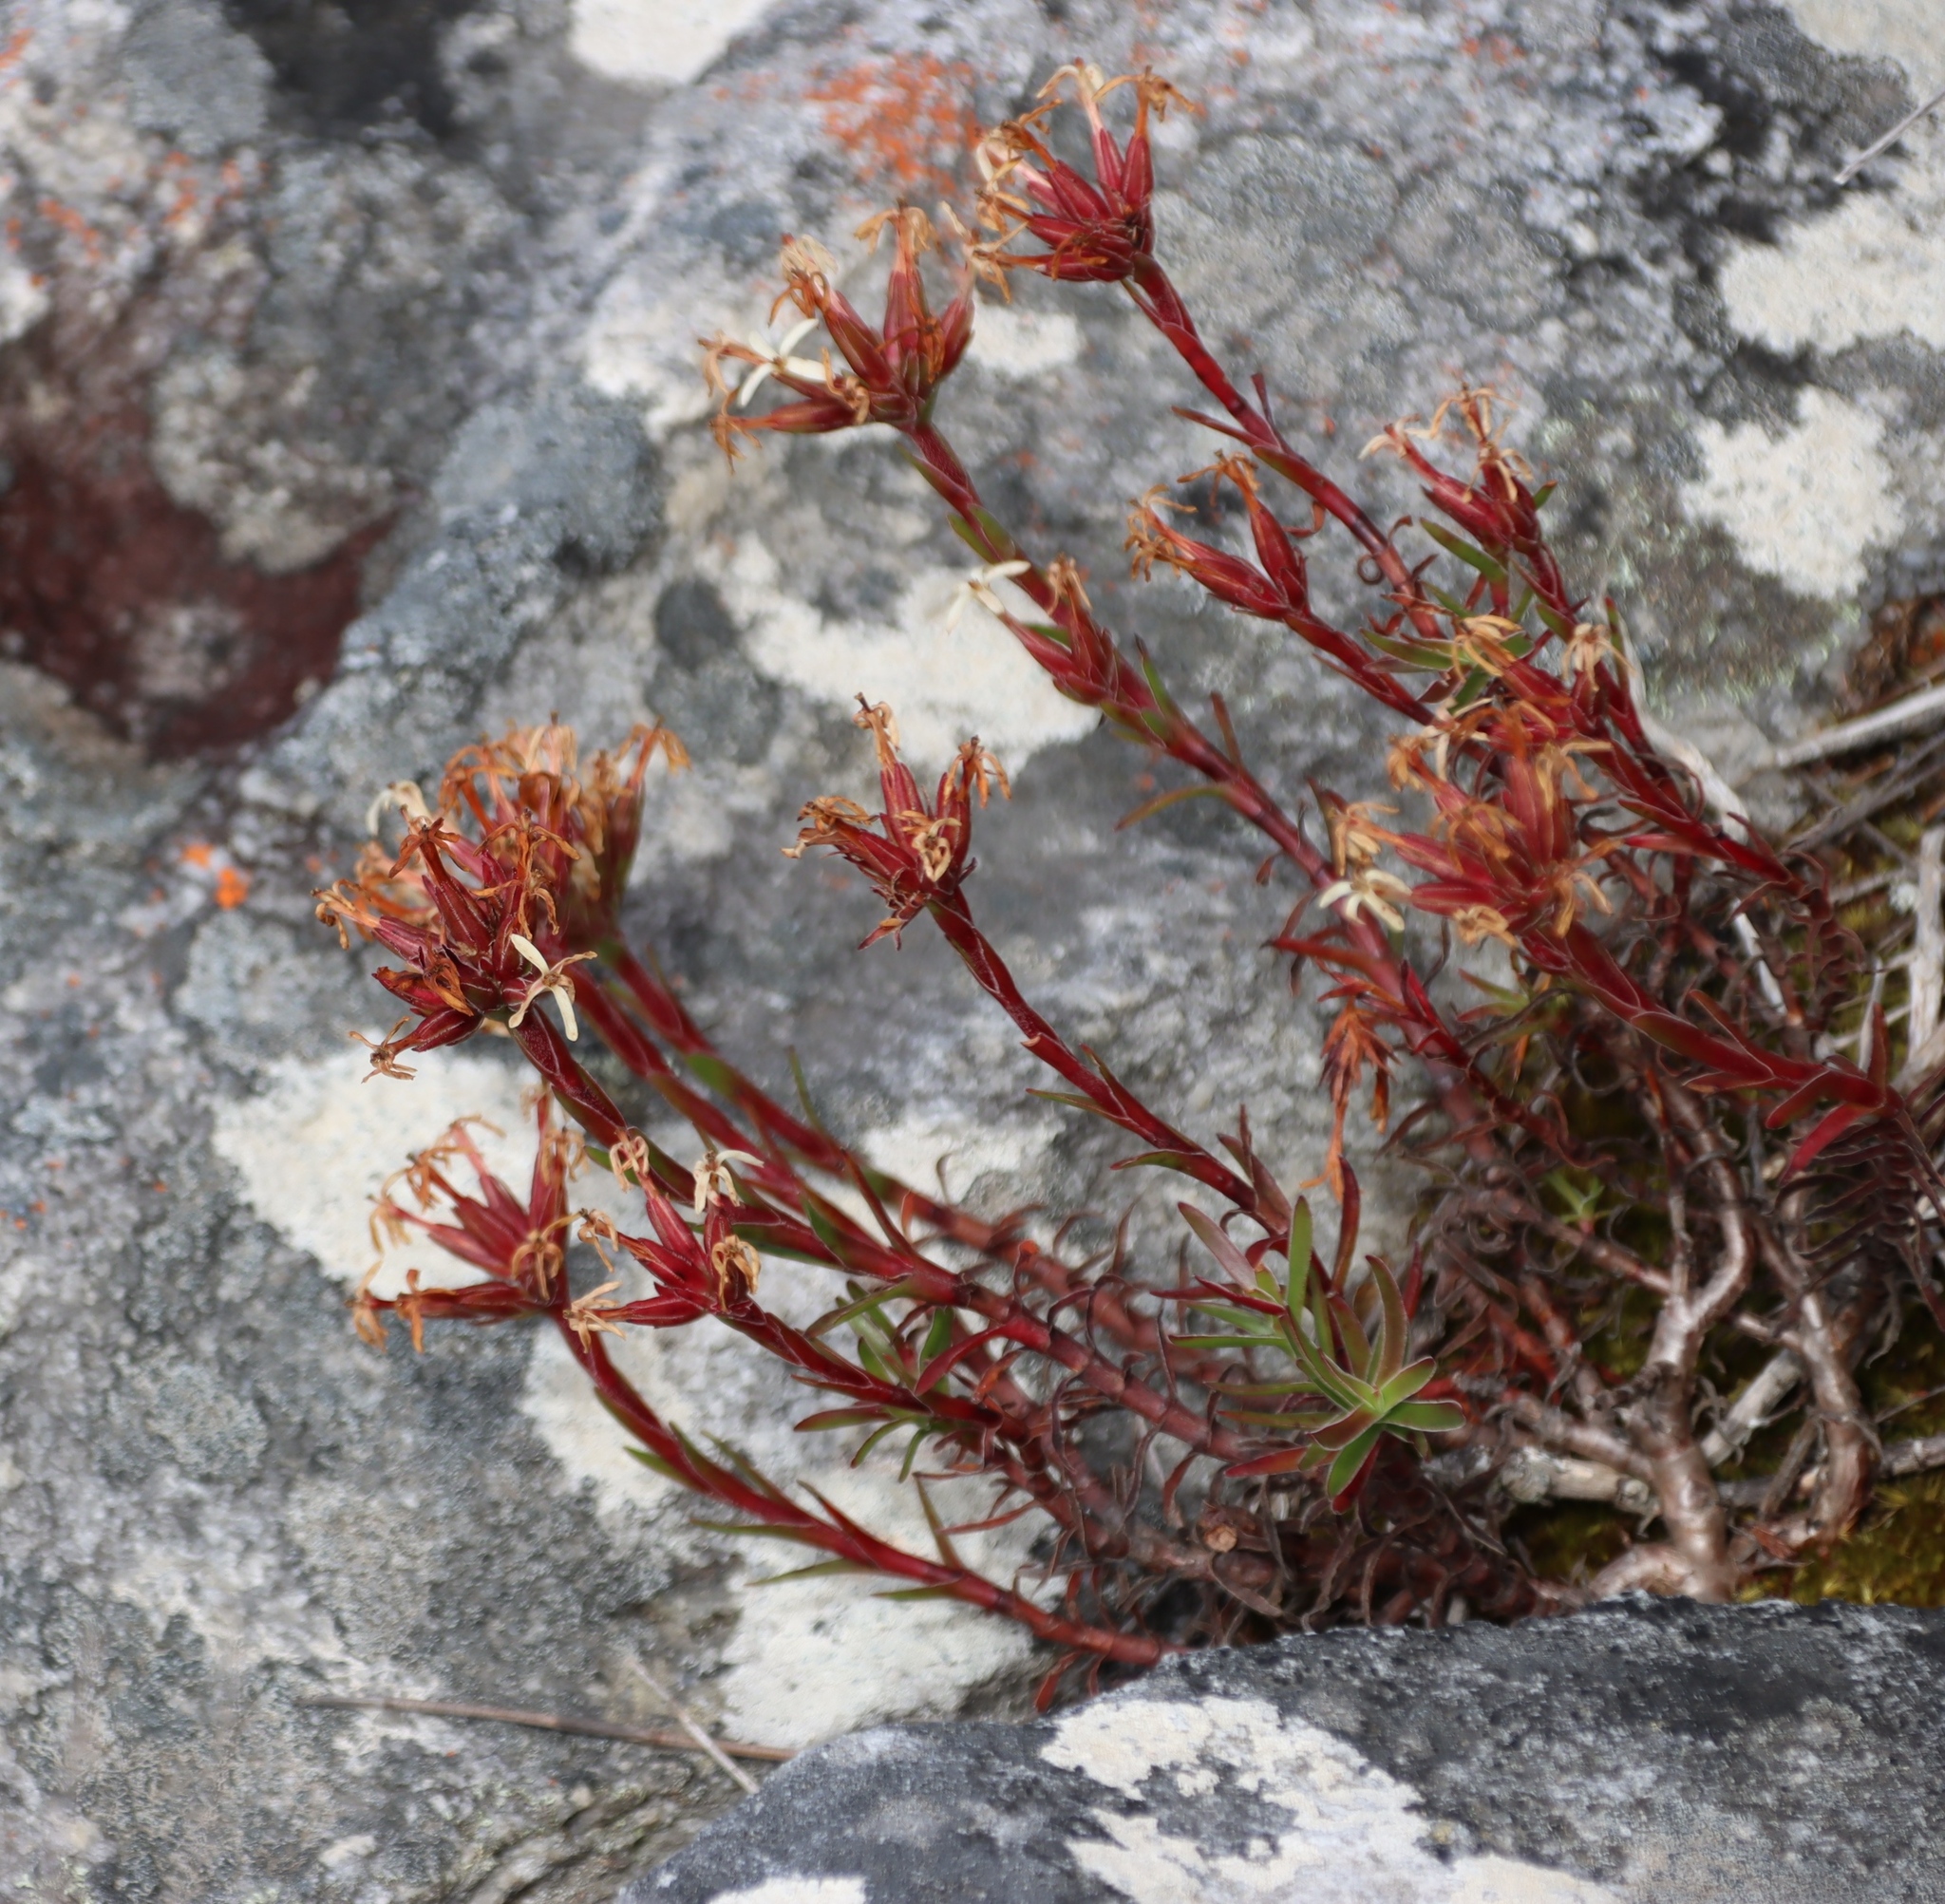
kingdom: Plantae
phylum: Tracheophyta
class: Magnoliopsida
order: Saxifragales
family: Crassulaceae
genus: Crassula
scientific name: Crassula fascicularis
